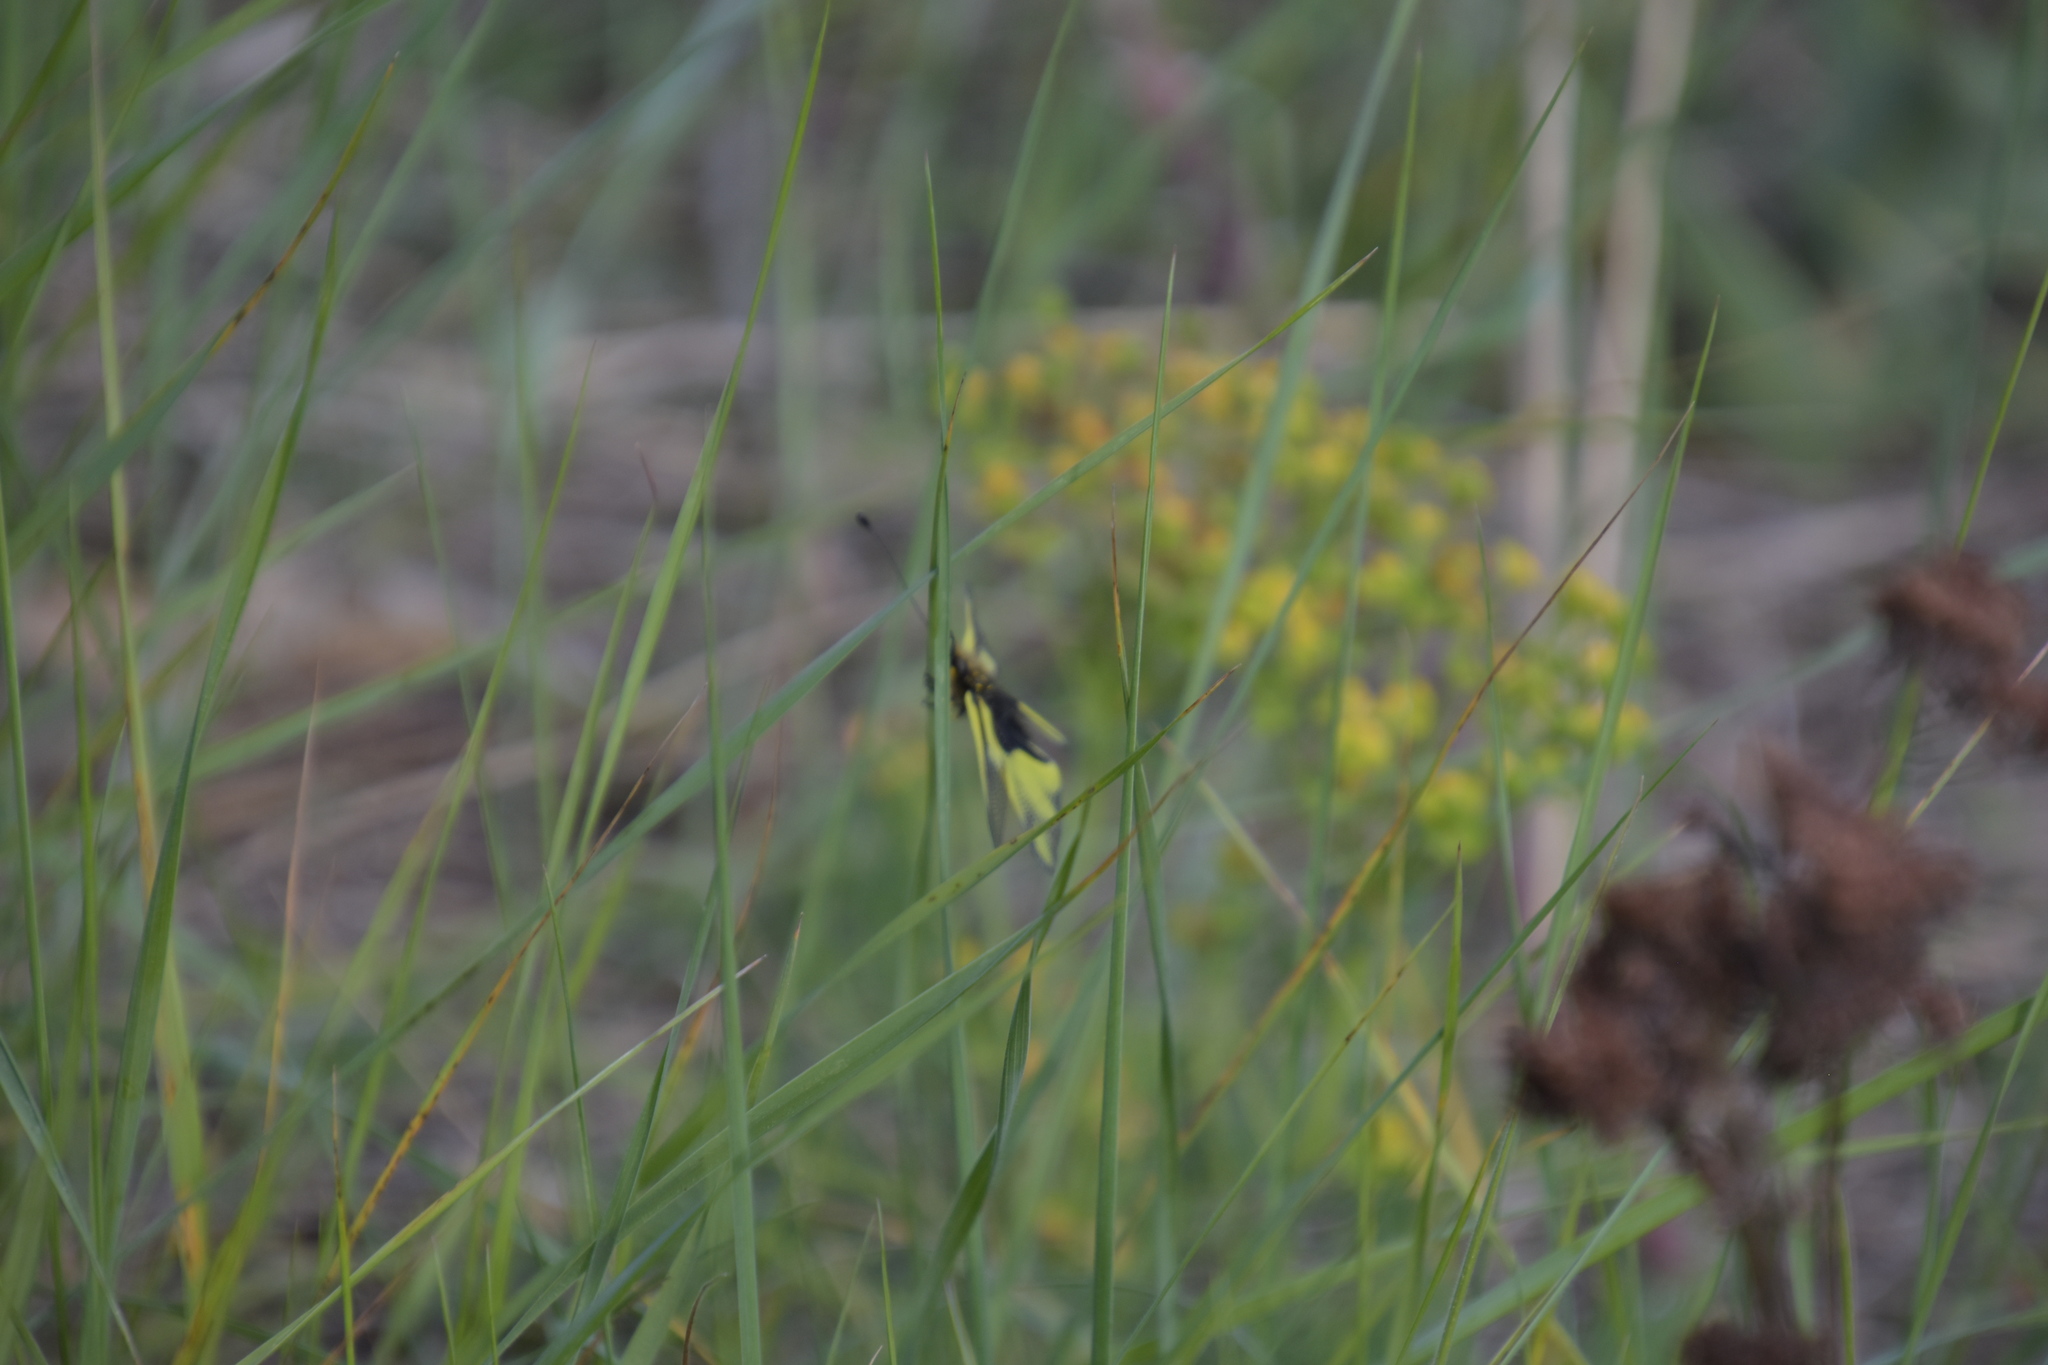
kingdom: Animalia
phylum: Arthropoda
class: Insecta
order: Neuroptera
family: Ascalaphidae
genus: Libelloides
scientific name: Libelloides coccajus
